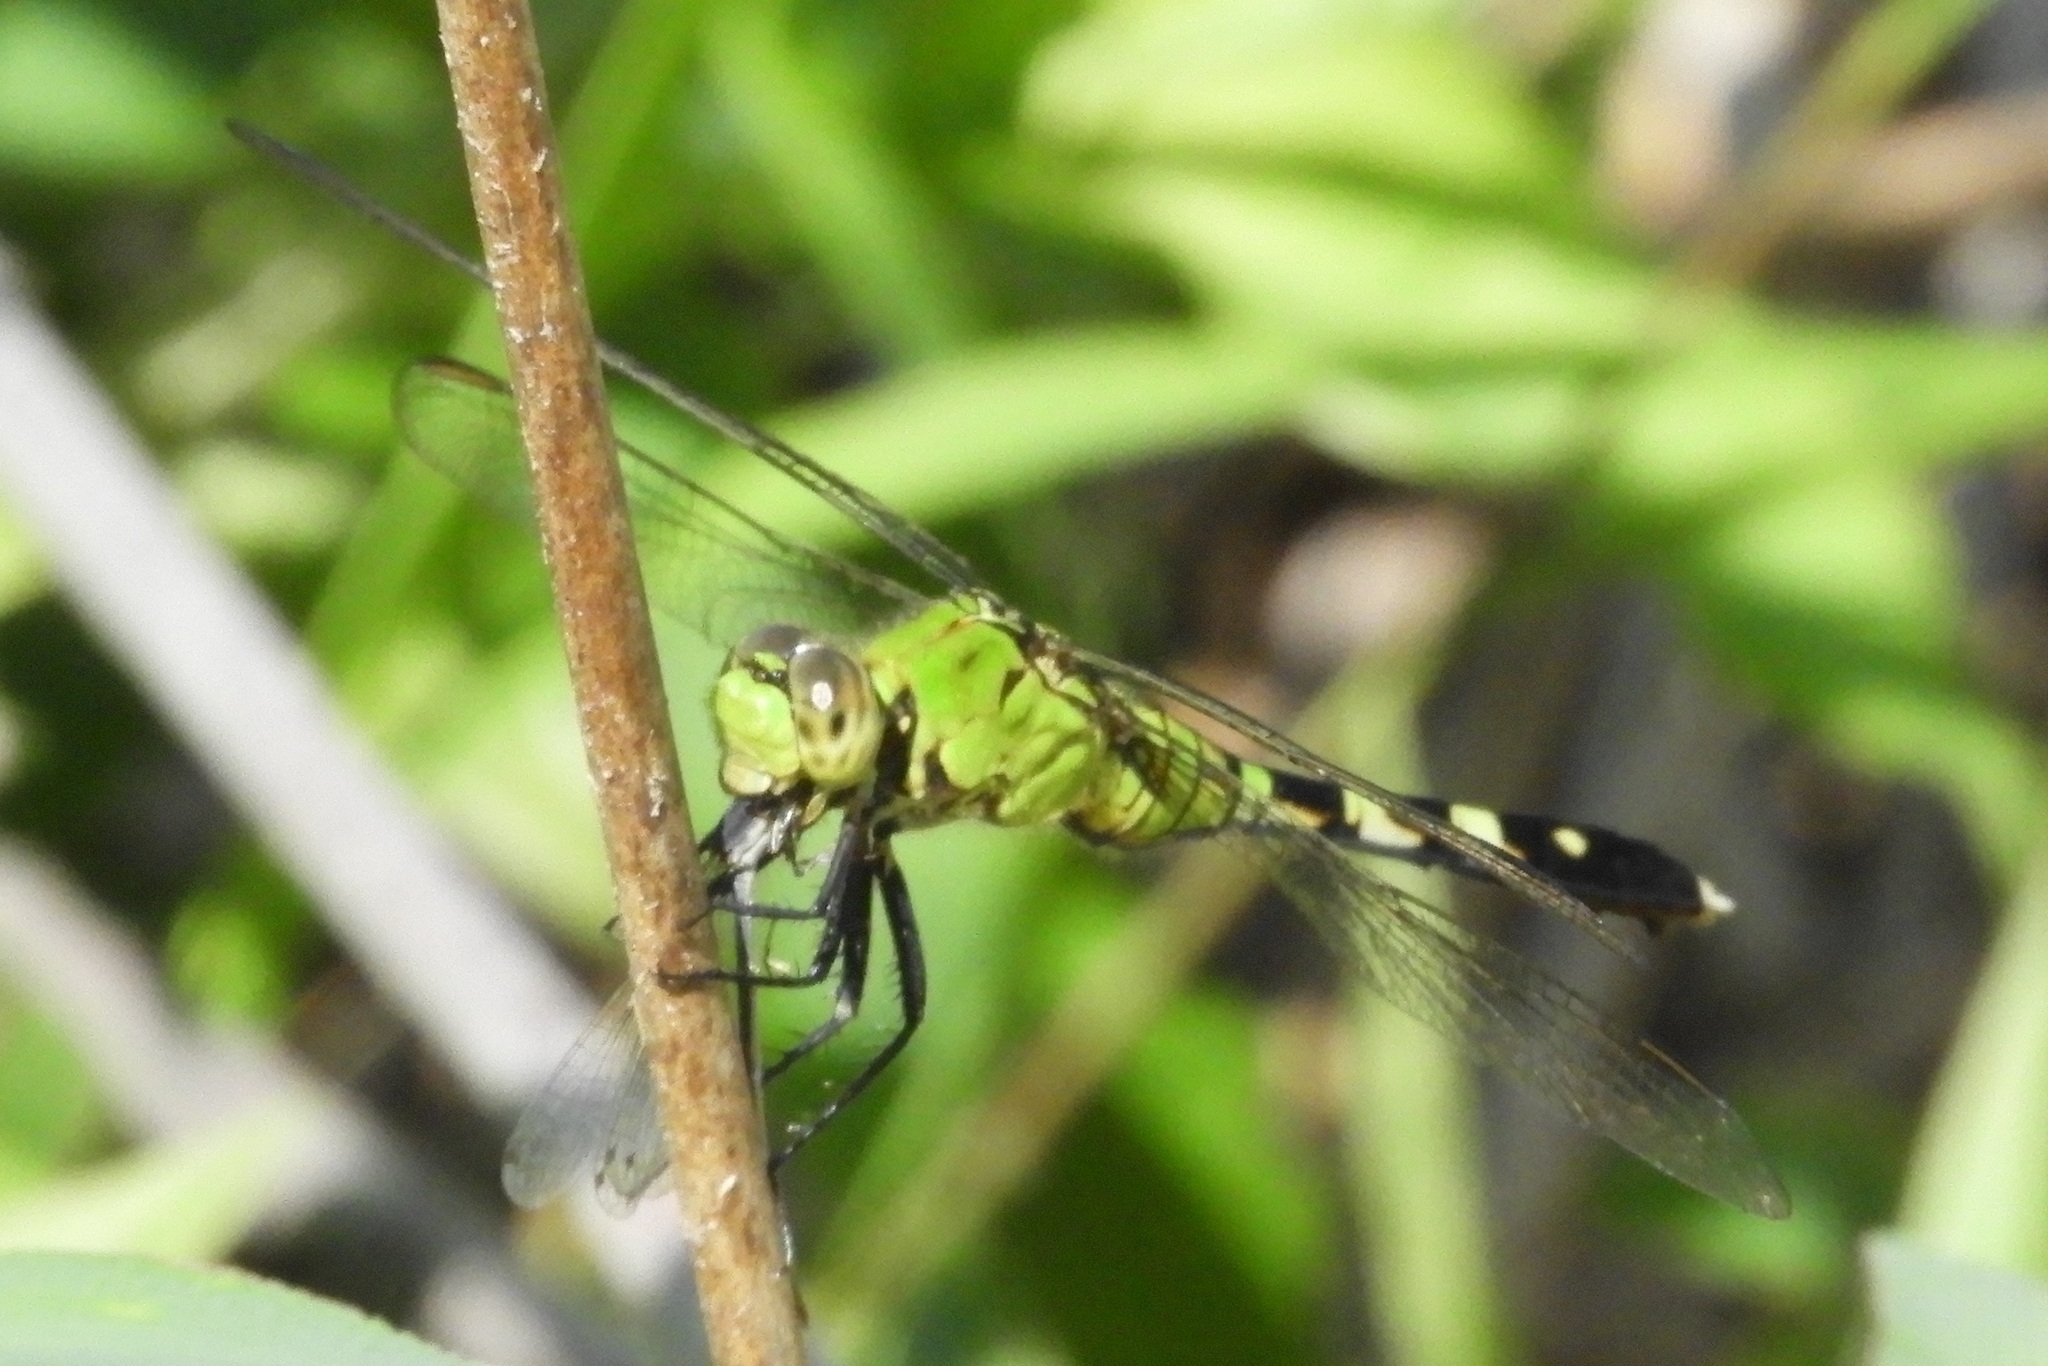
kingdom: Animalia
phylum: Arthropoda
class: Insecta
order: Odonata
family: Libellulidae
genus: Erythemis
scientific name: Erythemis simplicicollis
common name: Eastern pondhawk
